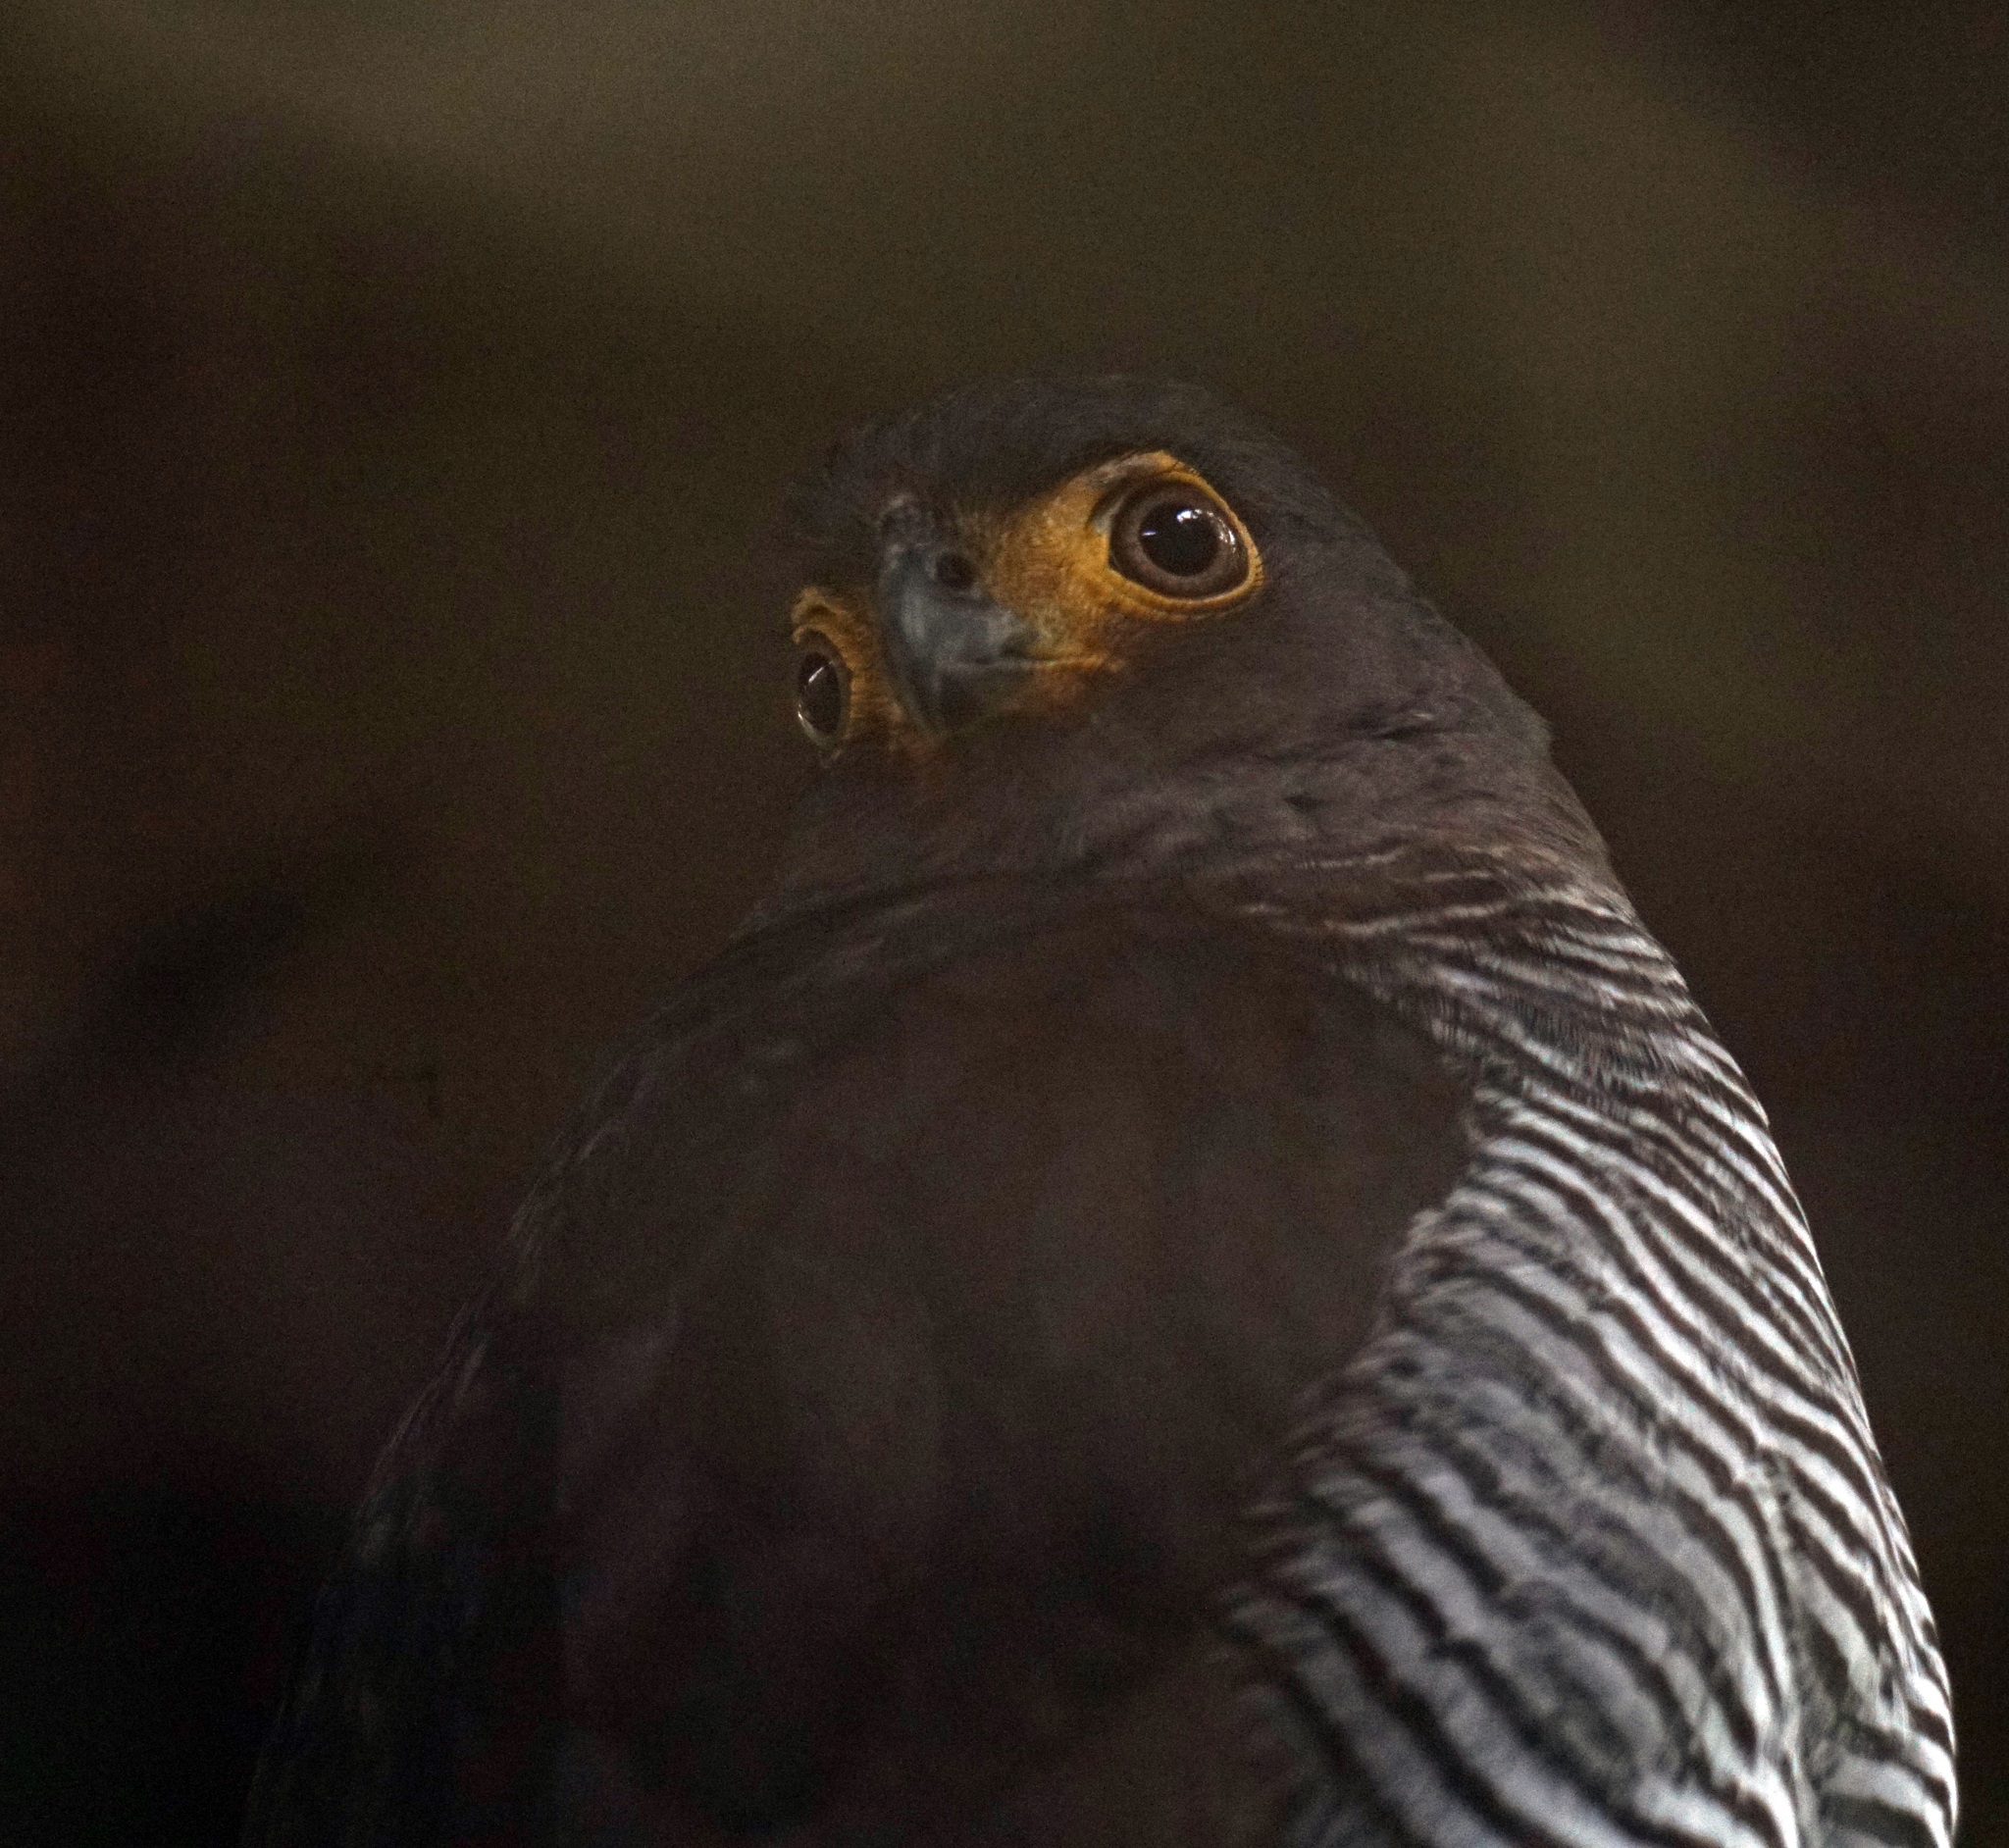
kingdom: Animalia
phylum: Chordata
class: Aves
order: Falconiformes
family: Falconidae
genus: Micrastur
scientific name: Micrastur ruficollis
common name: Barred forest-falcon
